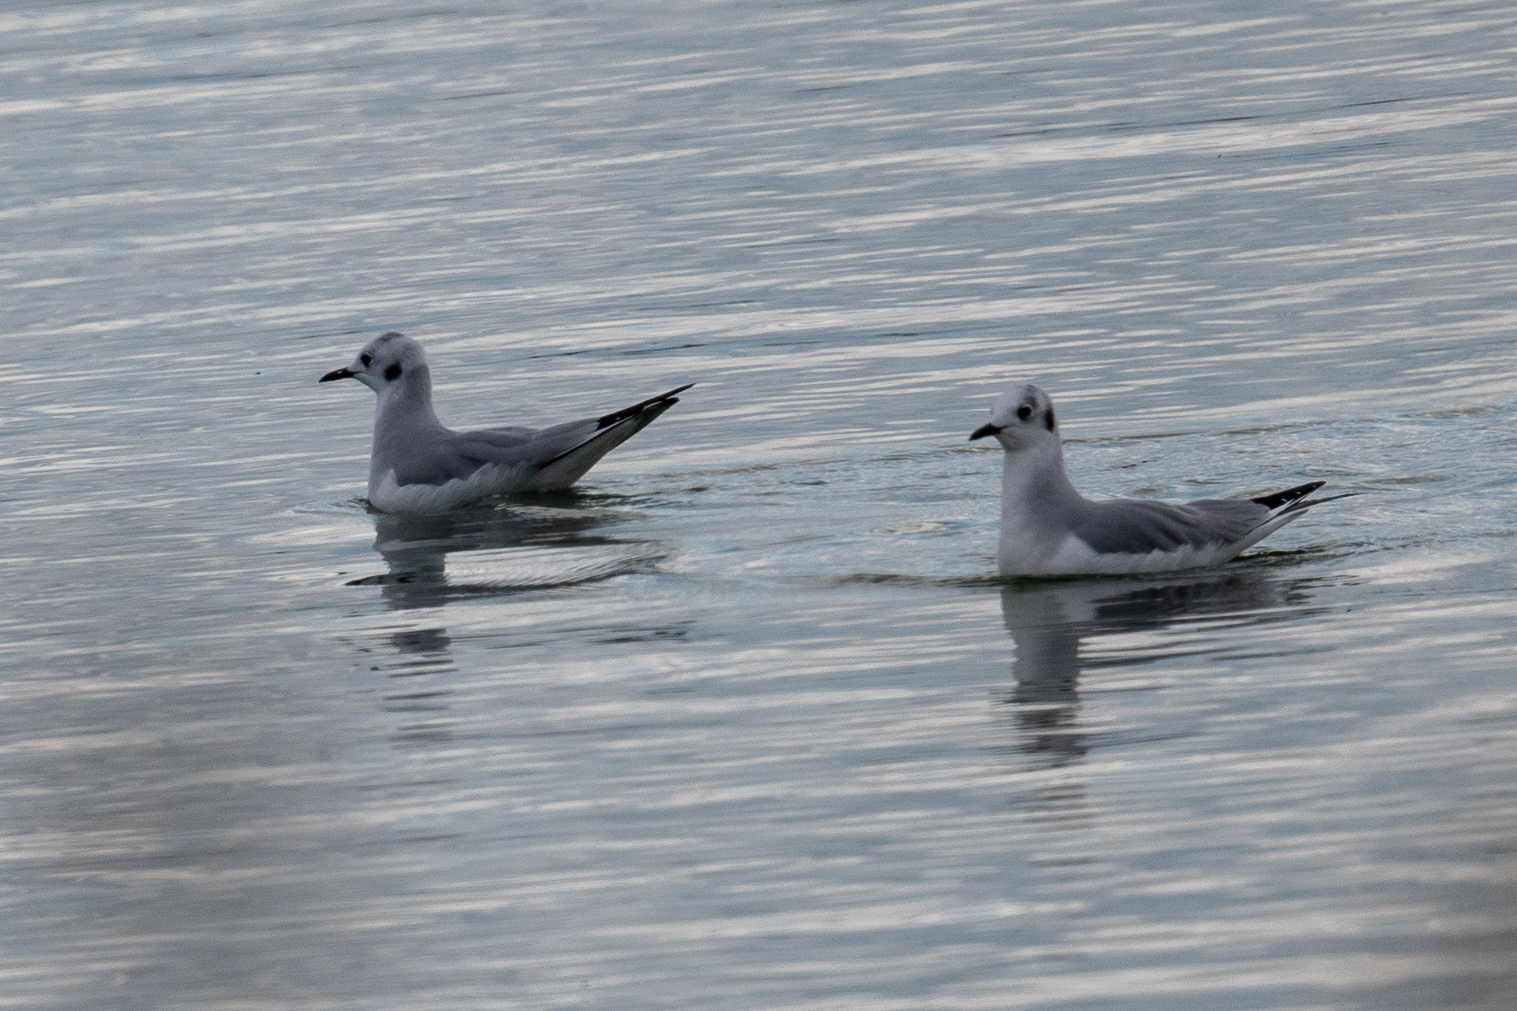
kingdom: Animalia
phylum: Chordata
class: Aves
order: Charadriiformes
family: Laridae
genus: Chroicocephalus
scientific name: Chroicocephalus philadelphia
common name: Bonaparte's gull
